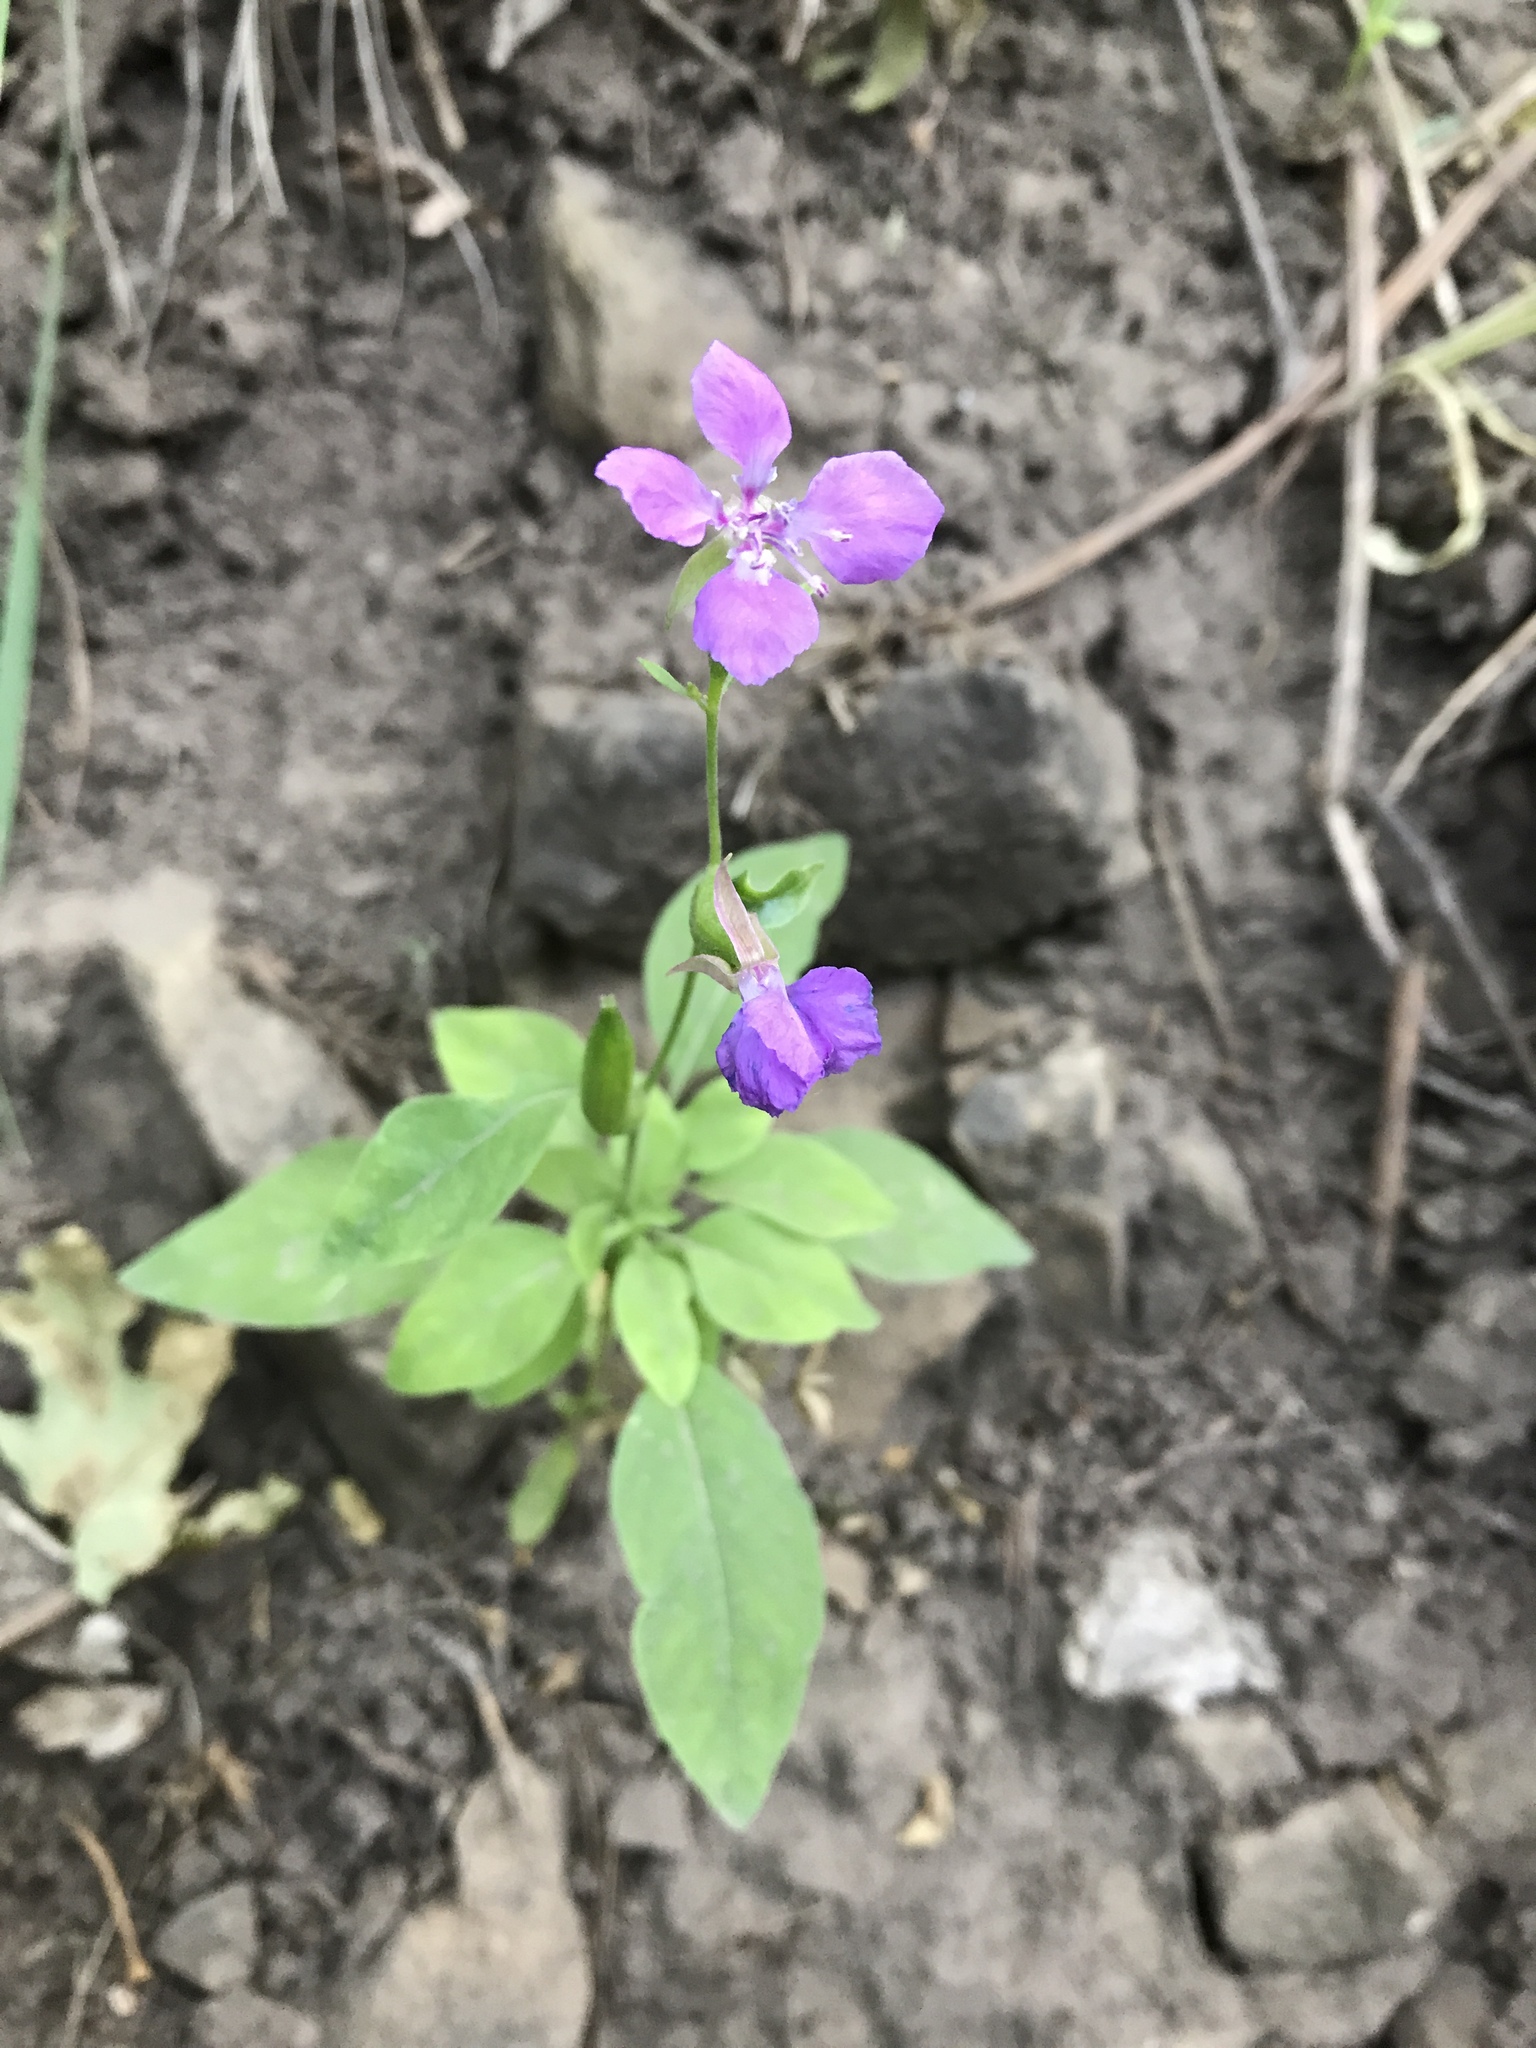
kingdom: Plantae
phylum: Tracheophyta
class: Magnoliopsida
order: Myrtales
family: Onagraceae
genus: Clarkia
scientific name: Clarkia rhomboidea
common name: Broadleaf clarkia
